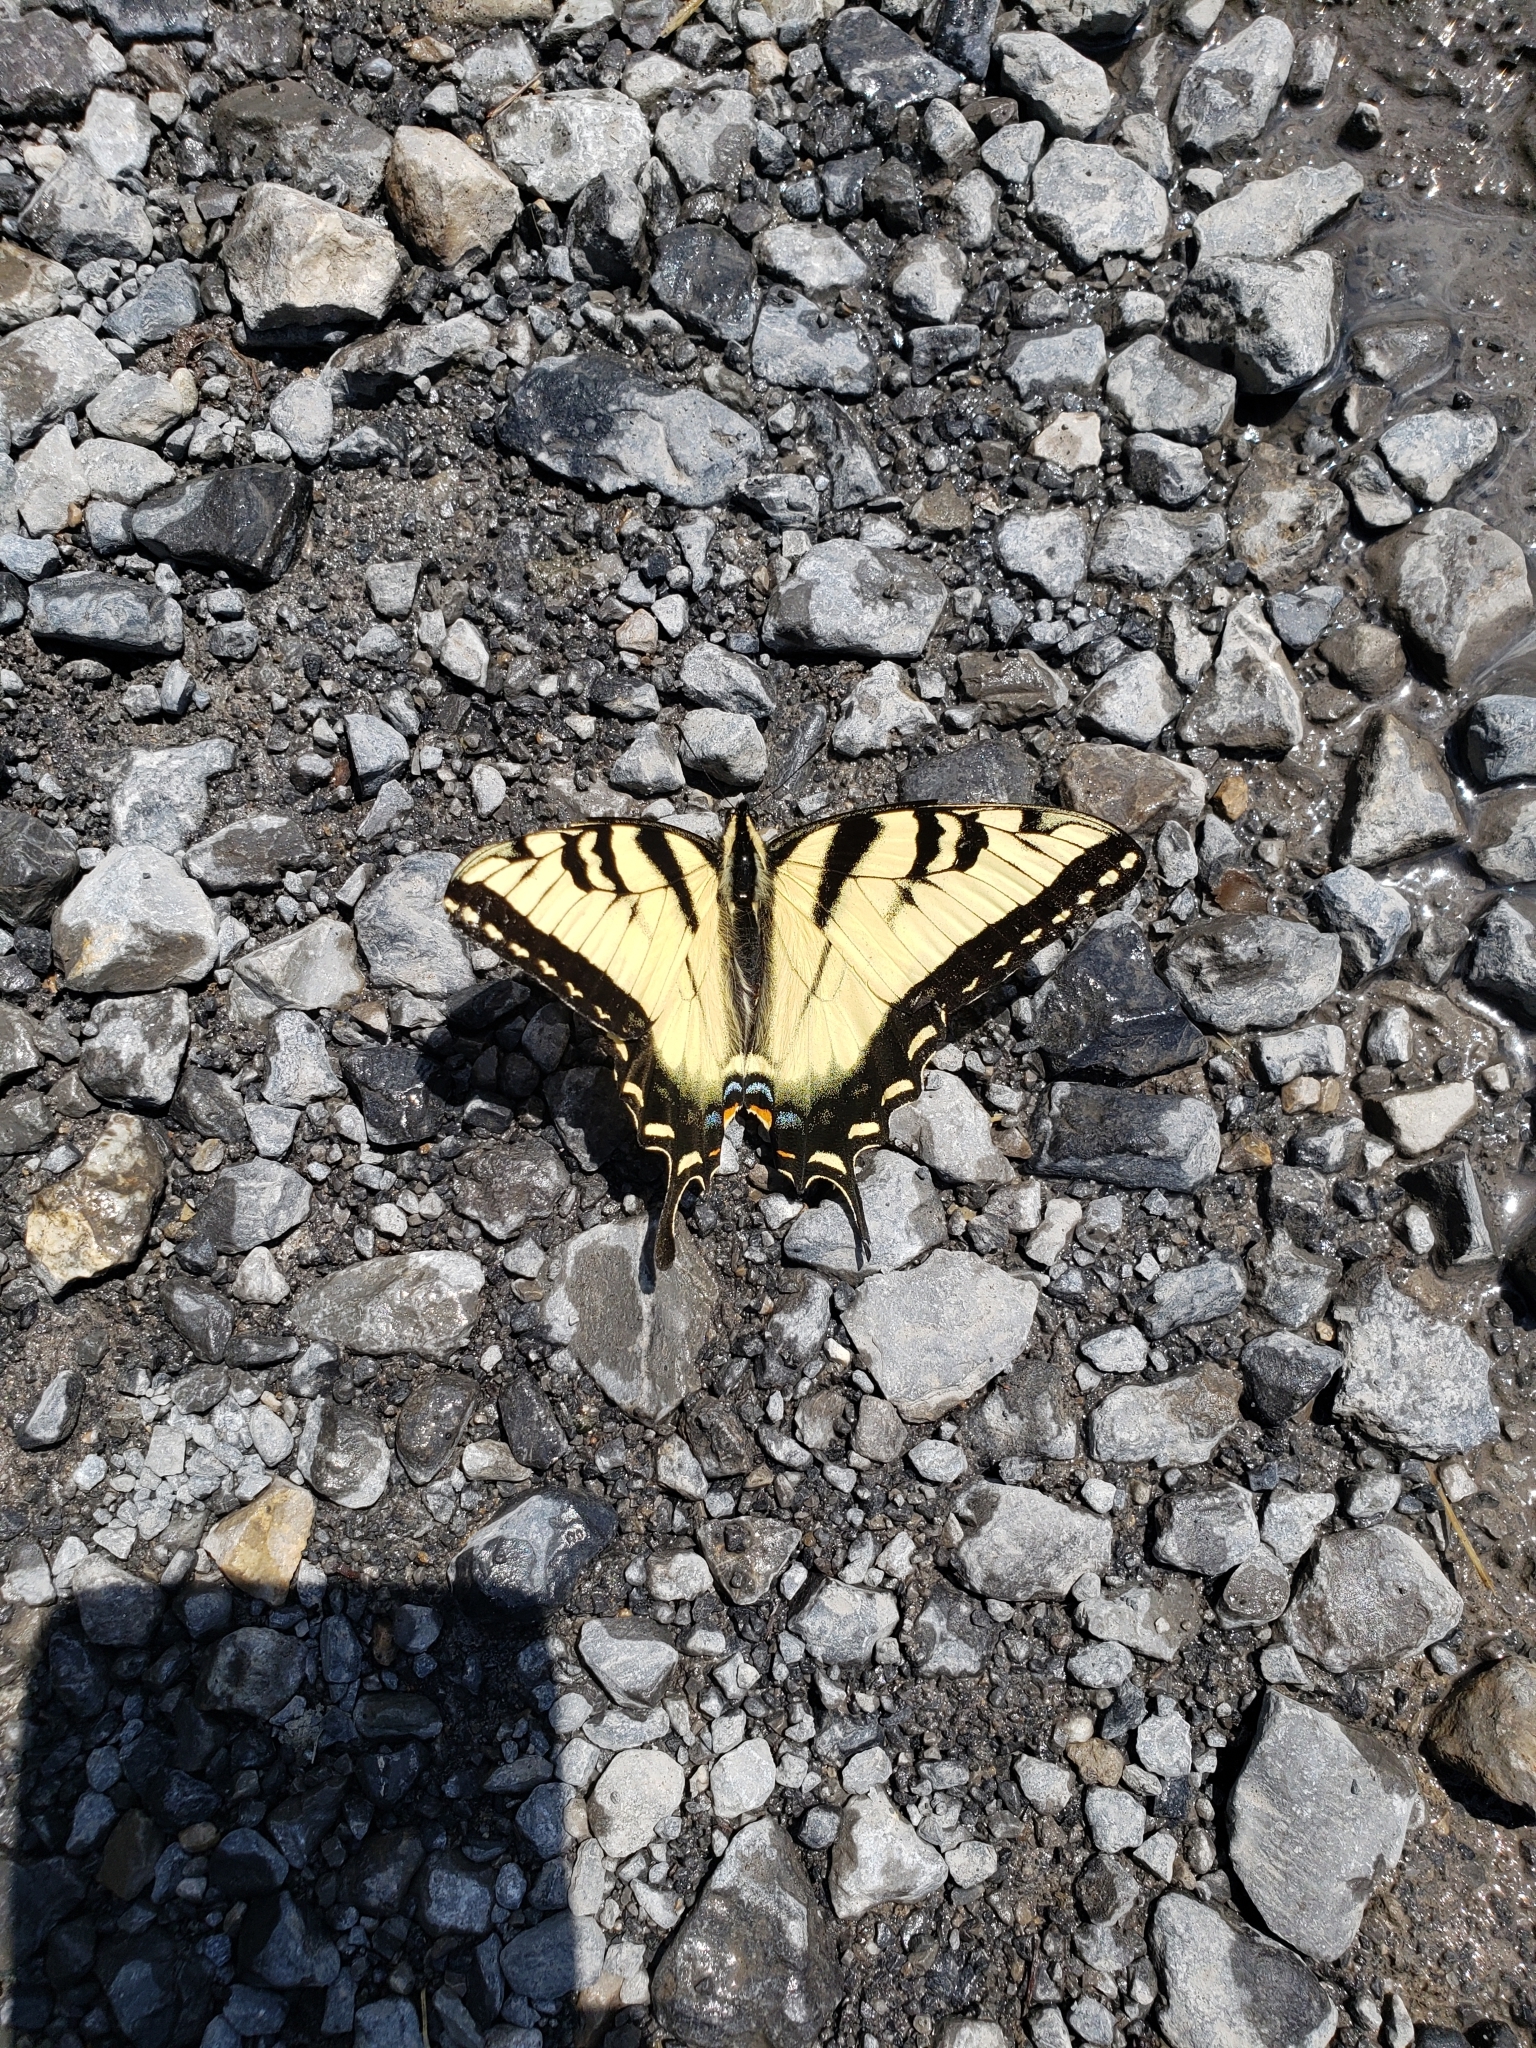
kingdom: Animalia
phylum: Arthropoda
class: Insecta
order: Lepidoptera
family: Papilionidae
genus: Papilio
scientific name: Papilio glaucus
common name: Tiger swallowtail
